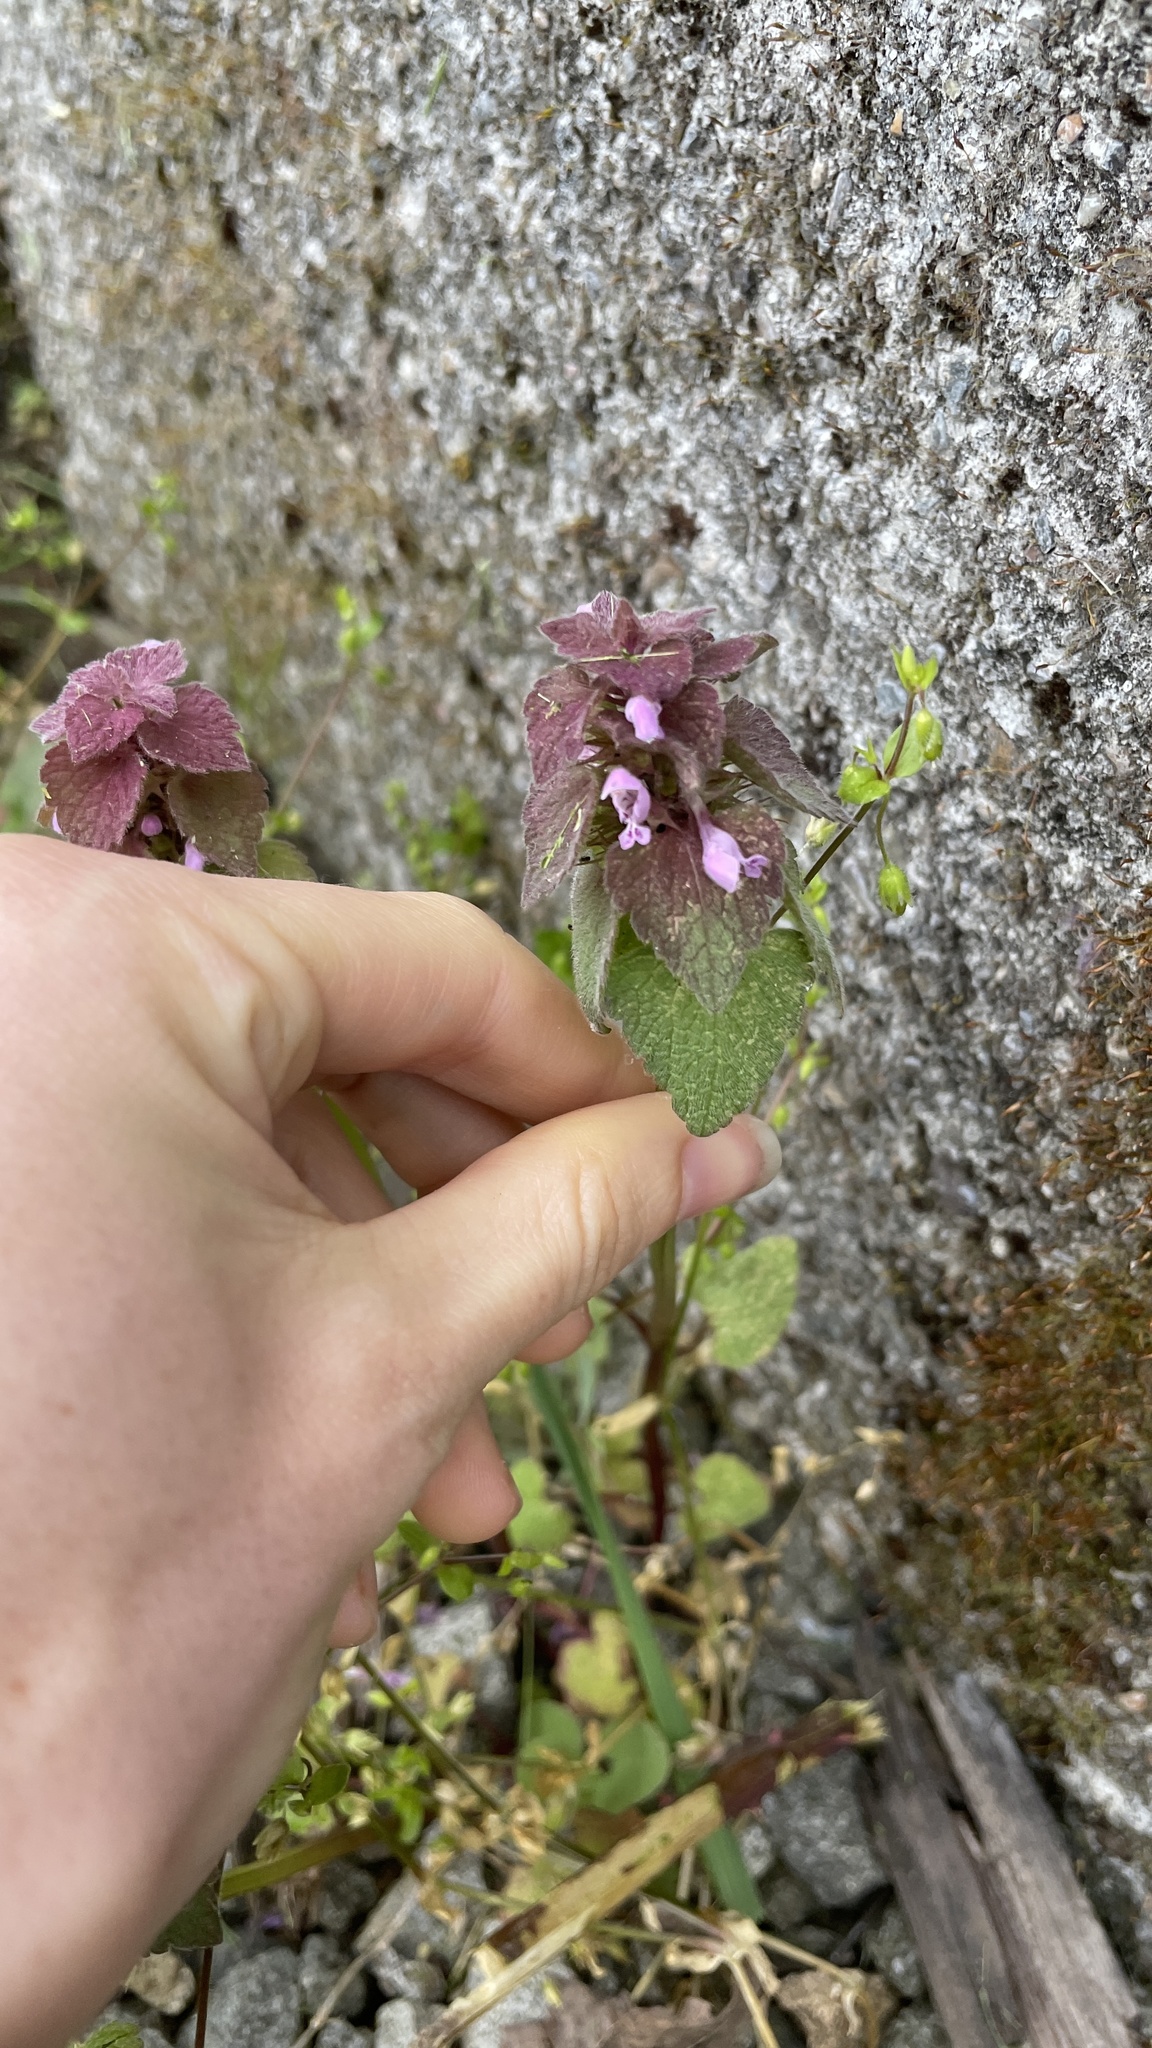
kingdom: Plantae
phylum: Tracheophyta
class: Magnoliopsida
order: Lamiales
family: Lamiaceae
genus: Lamium
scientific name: Lamium purpureum
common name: Red dead-nettle
